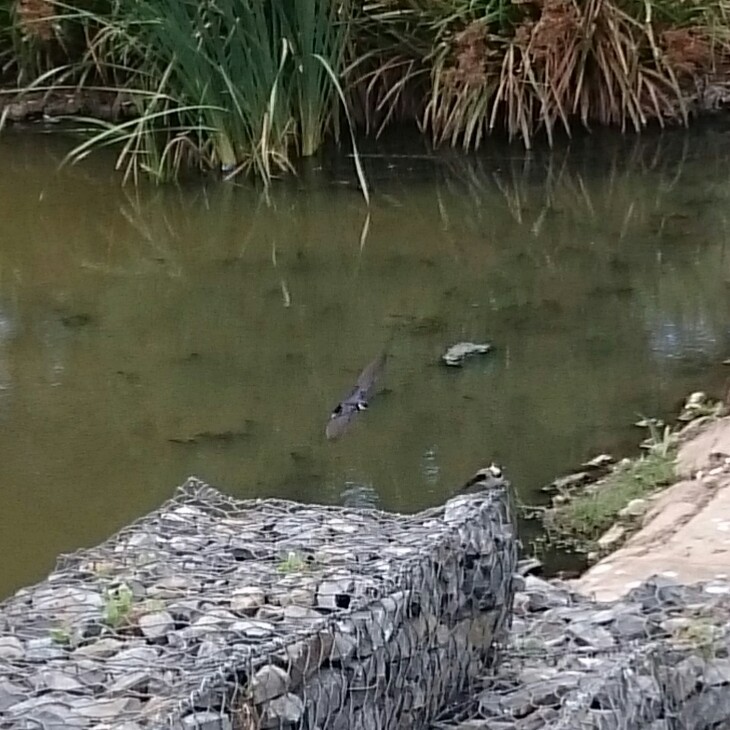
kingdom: Animalia
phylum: Chordata
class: Aves
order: Passeriformes
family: Hirundinidae
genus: Hirundo
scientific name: Hirundo albigularis
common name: White-throated swallow
